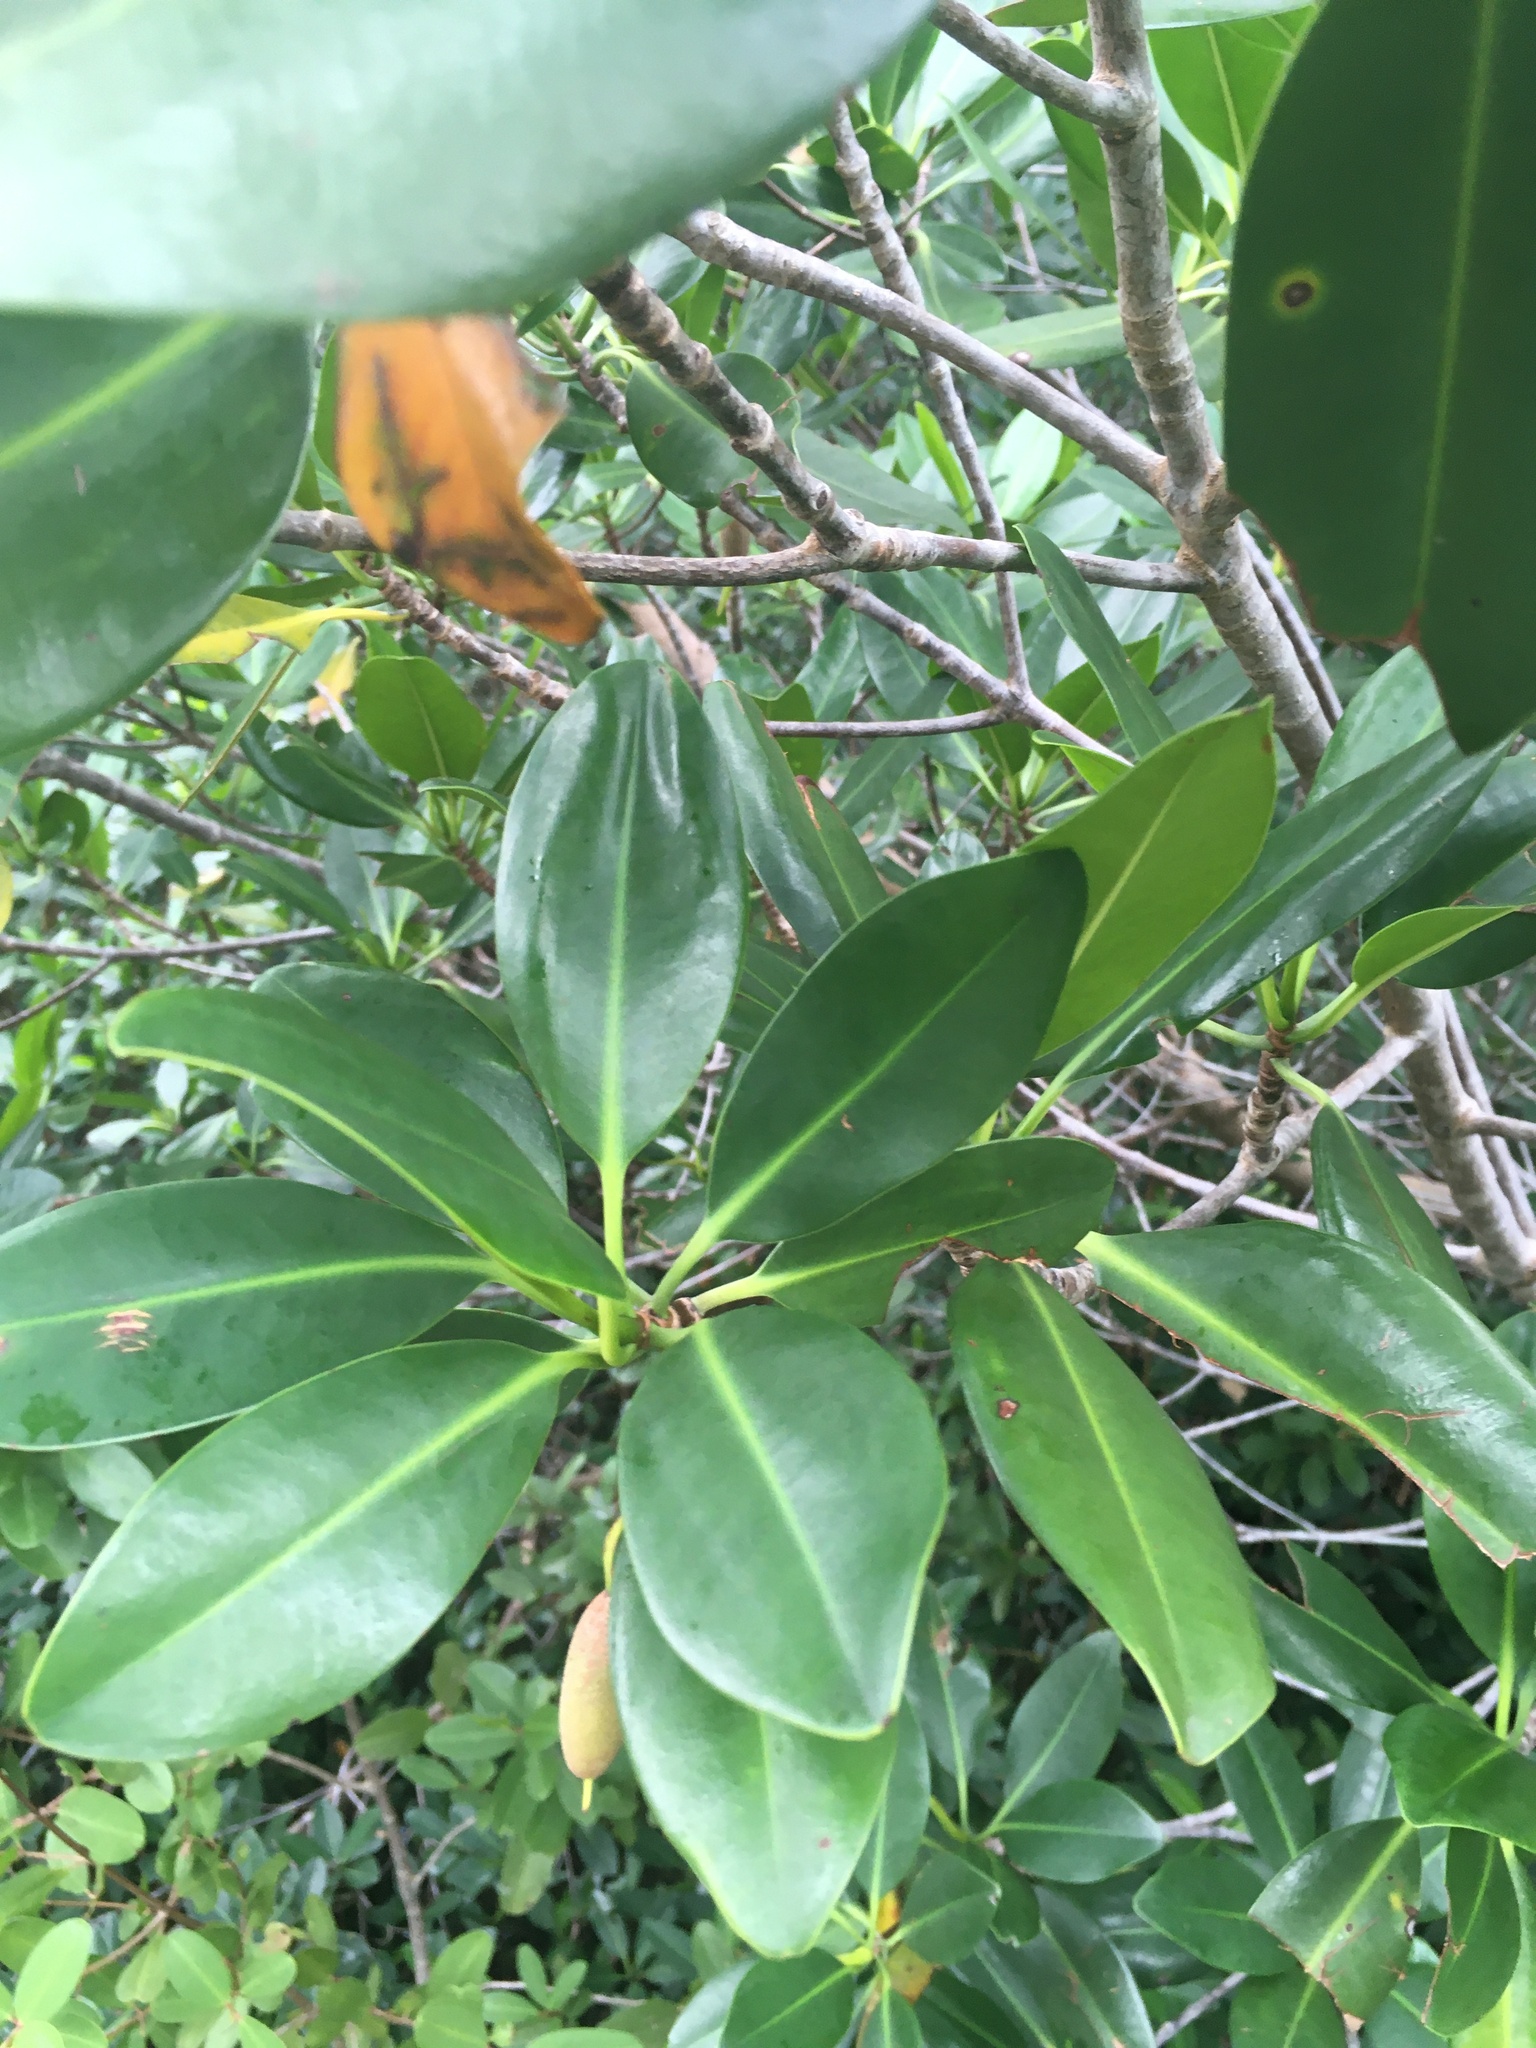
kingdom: Plantae
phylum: Tracheophyta
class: Magnoliopsida
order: Malpighiales
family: Rhizophoraceae
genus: Rhizophora
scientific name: Rhizophora mangle
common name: Red mangrove
